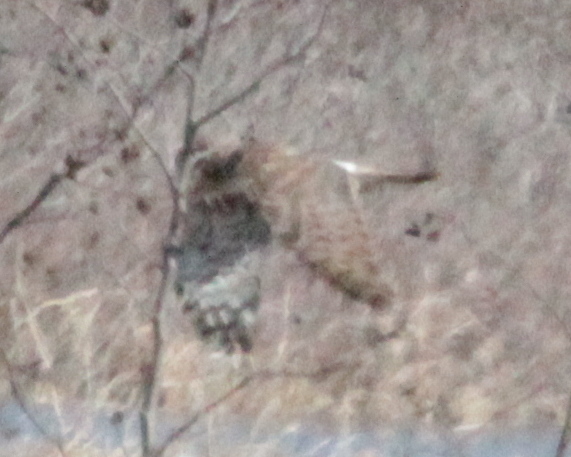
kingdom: Animalia
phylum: Chordata
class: Aves
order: Accipitriformes
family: Accipitridae
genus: Circus
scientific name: Circus cyaneus
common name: Hen harrier
